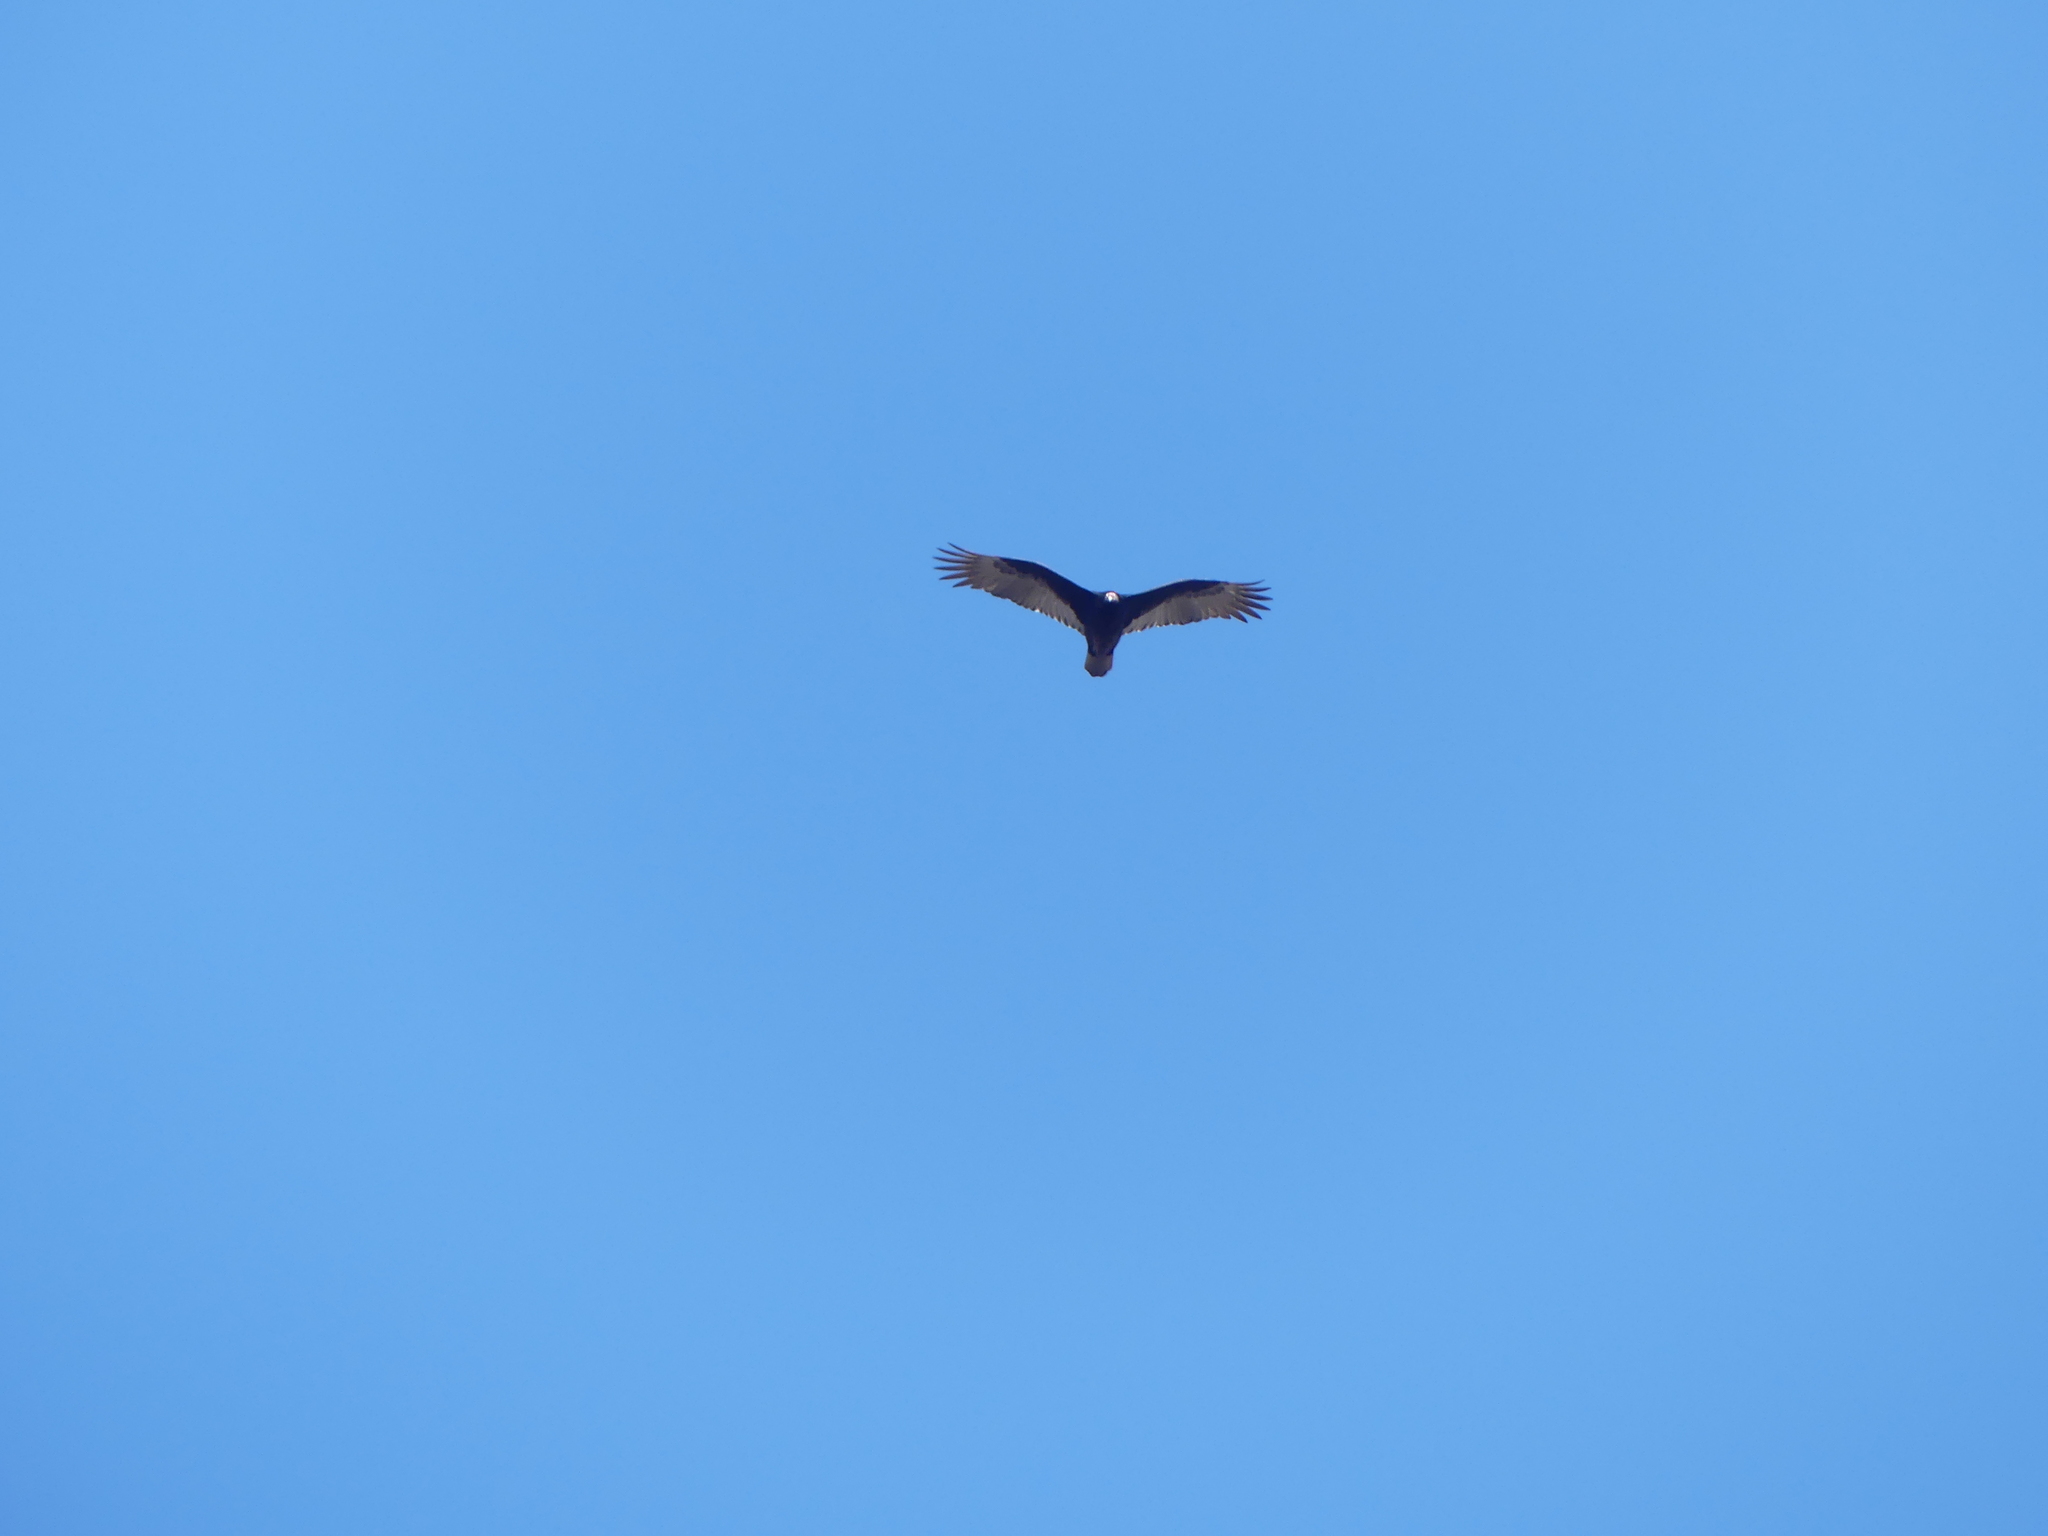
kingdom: Animalia
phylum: Chordata
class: Aves
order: Accipitriformes
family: Cathartidae
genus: Cathartes
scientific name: Cathartes aura
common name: Turkey vulture
